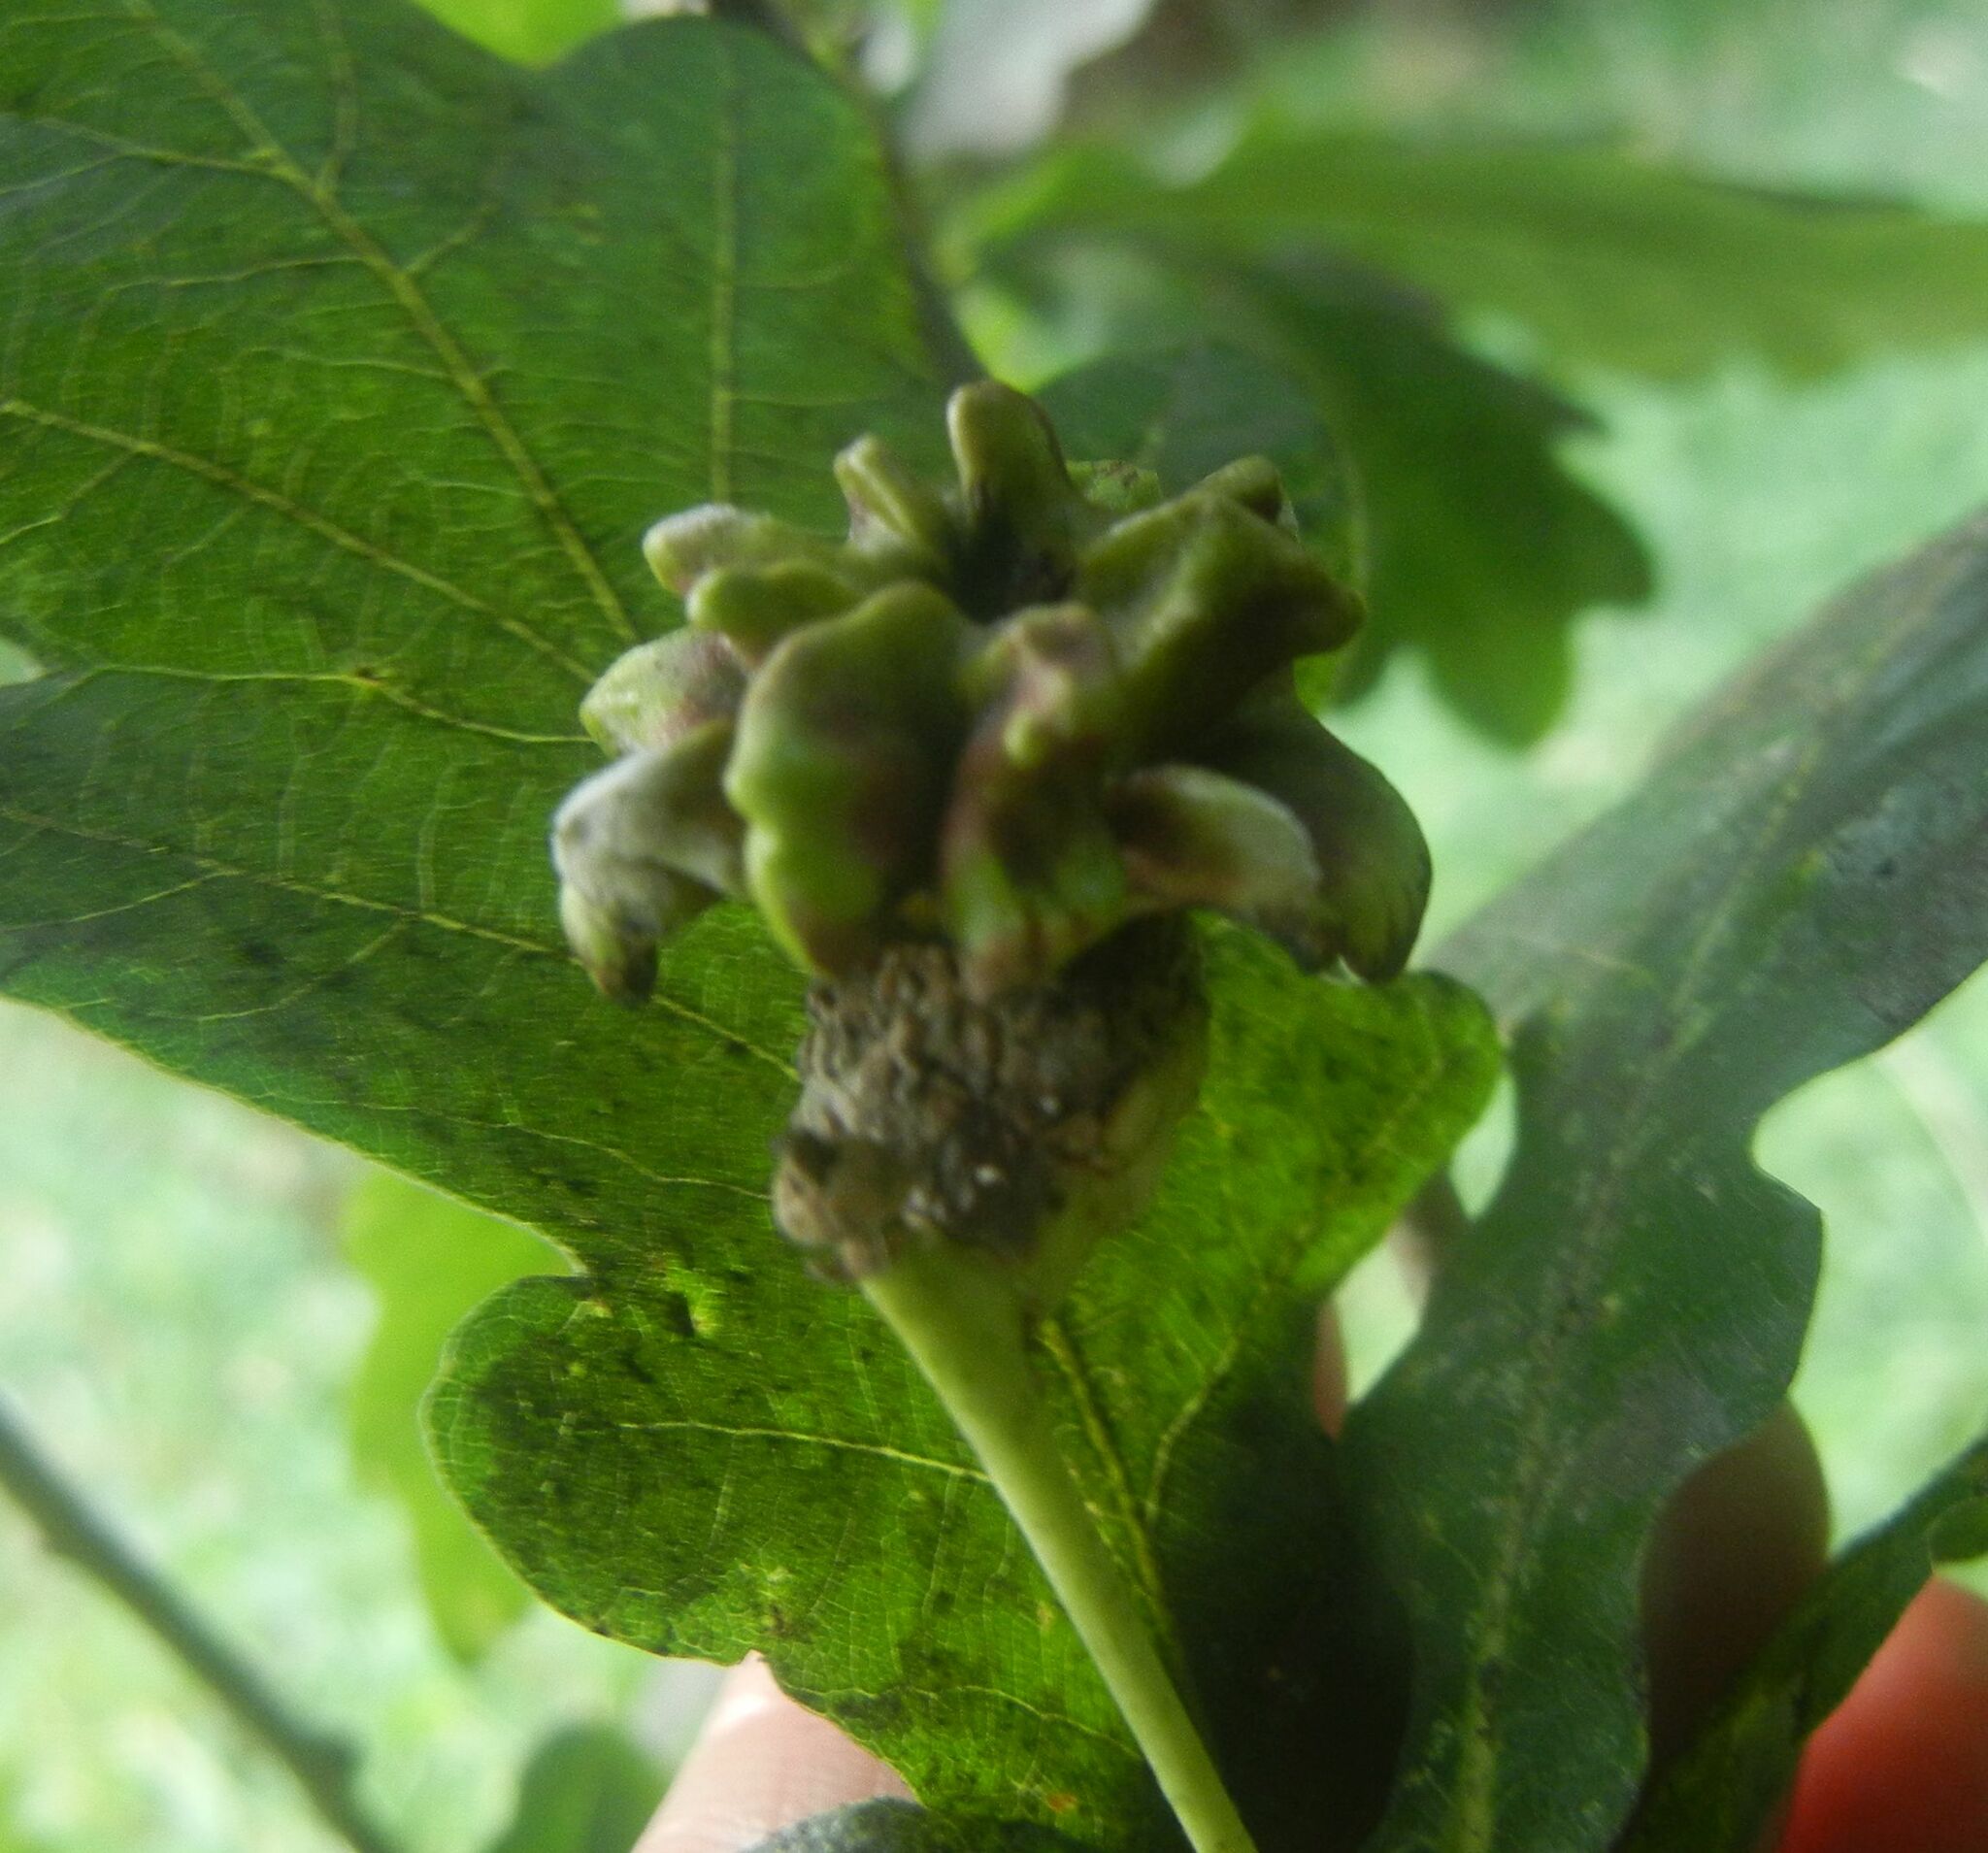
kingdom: Animalia
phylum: Arthropoda
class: Insecta
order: Hymenoptera
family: Cynipidae
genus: Andricus
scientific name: Andricus quercuscalicis
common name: Knopper gall
